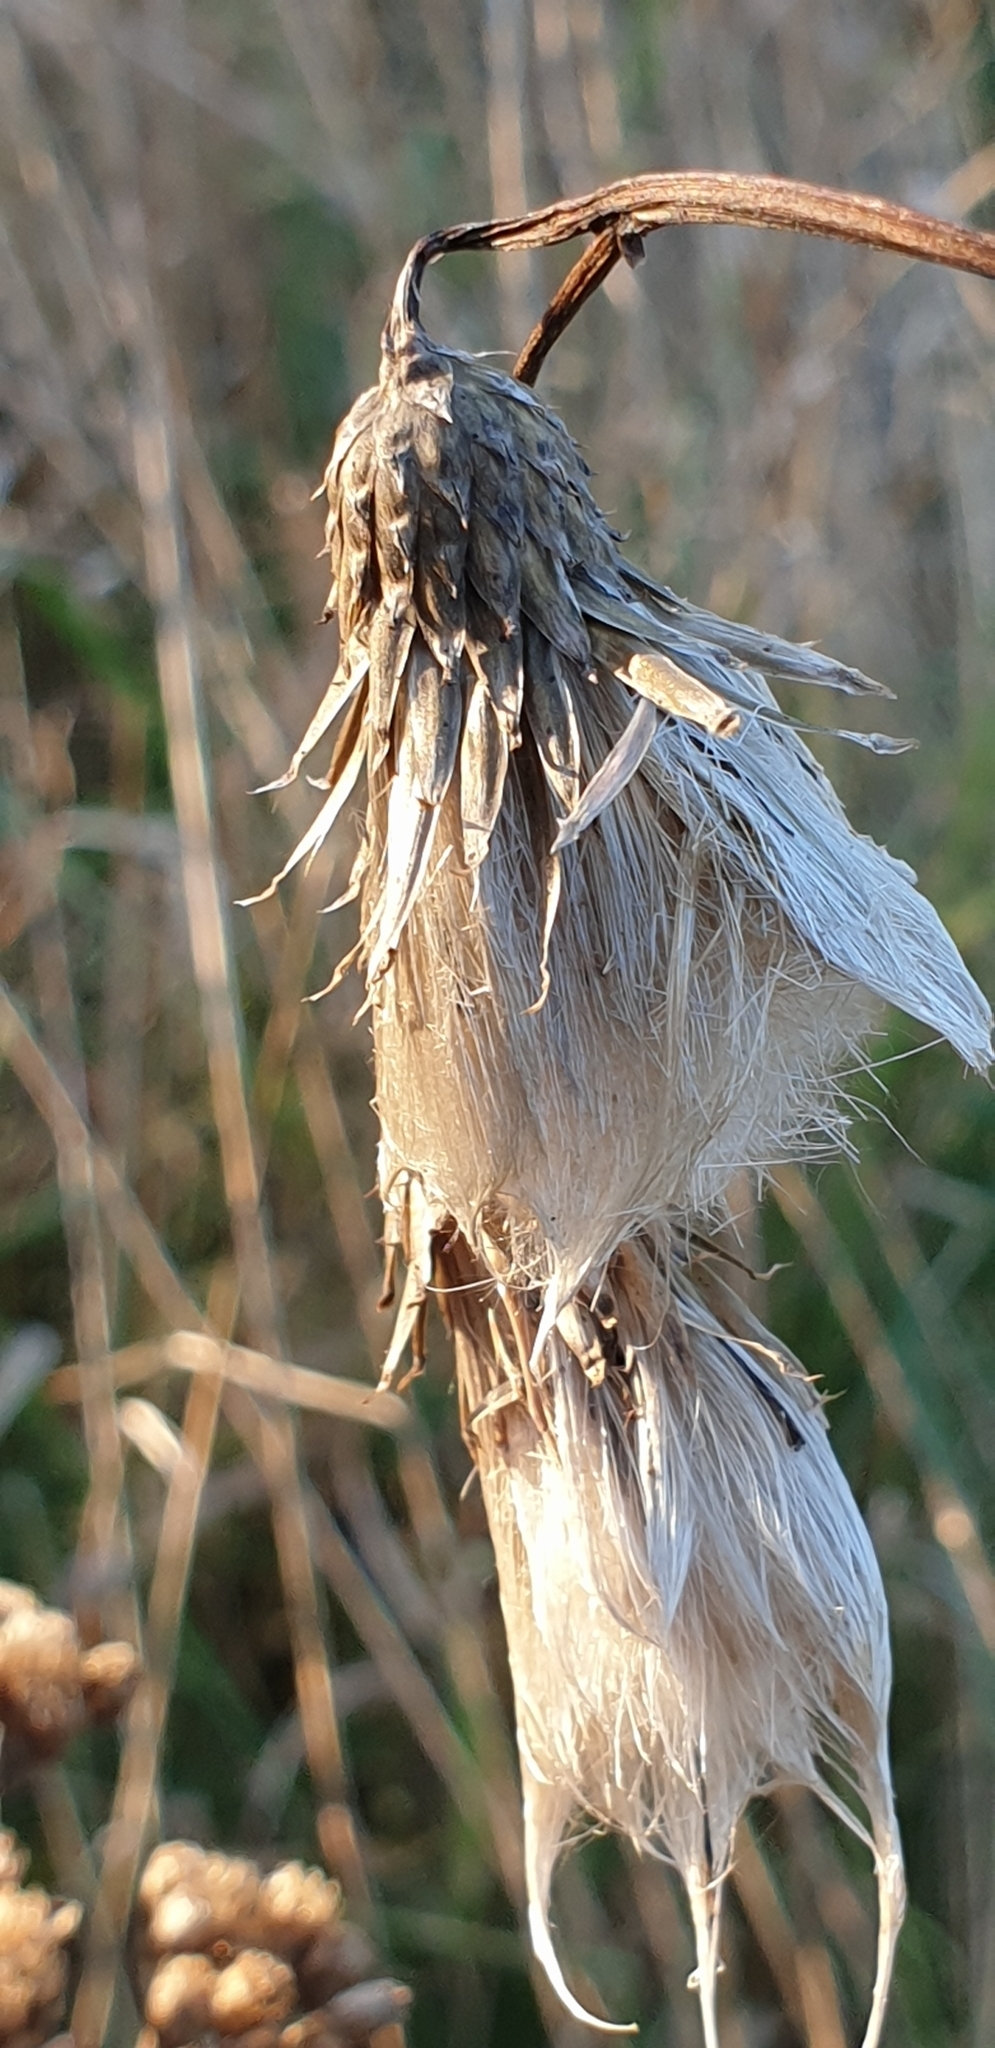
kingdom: Plantae
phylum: Tracheophyta
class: Magnoliopsida
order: Asterales
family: Asteraceae
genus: Cirsium
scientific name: Cirsium arvense
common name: Creeping thistle
